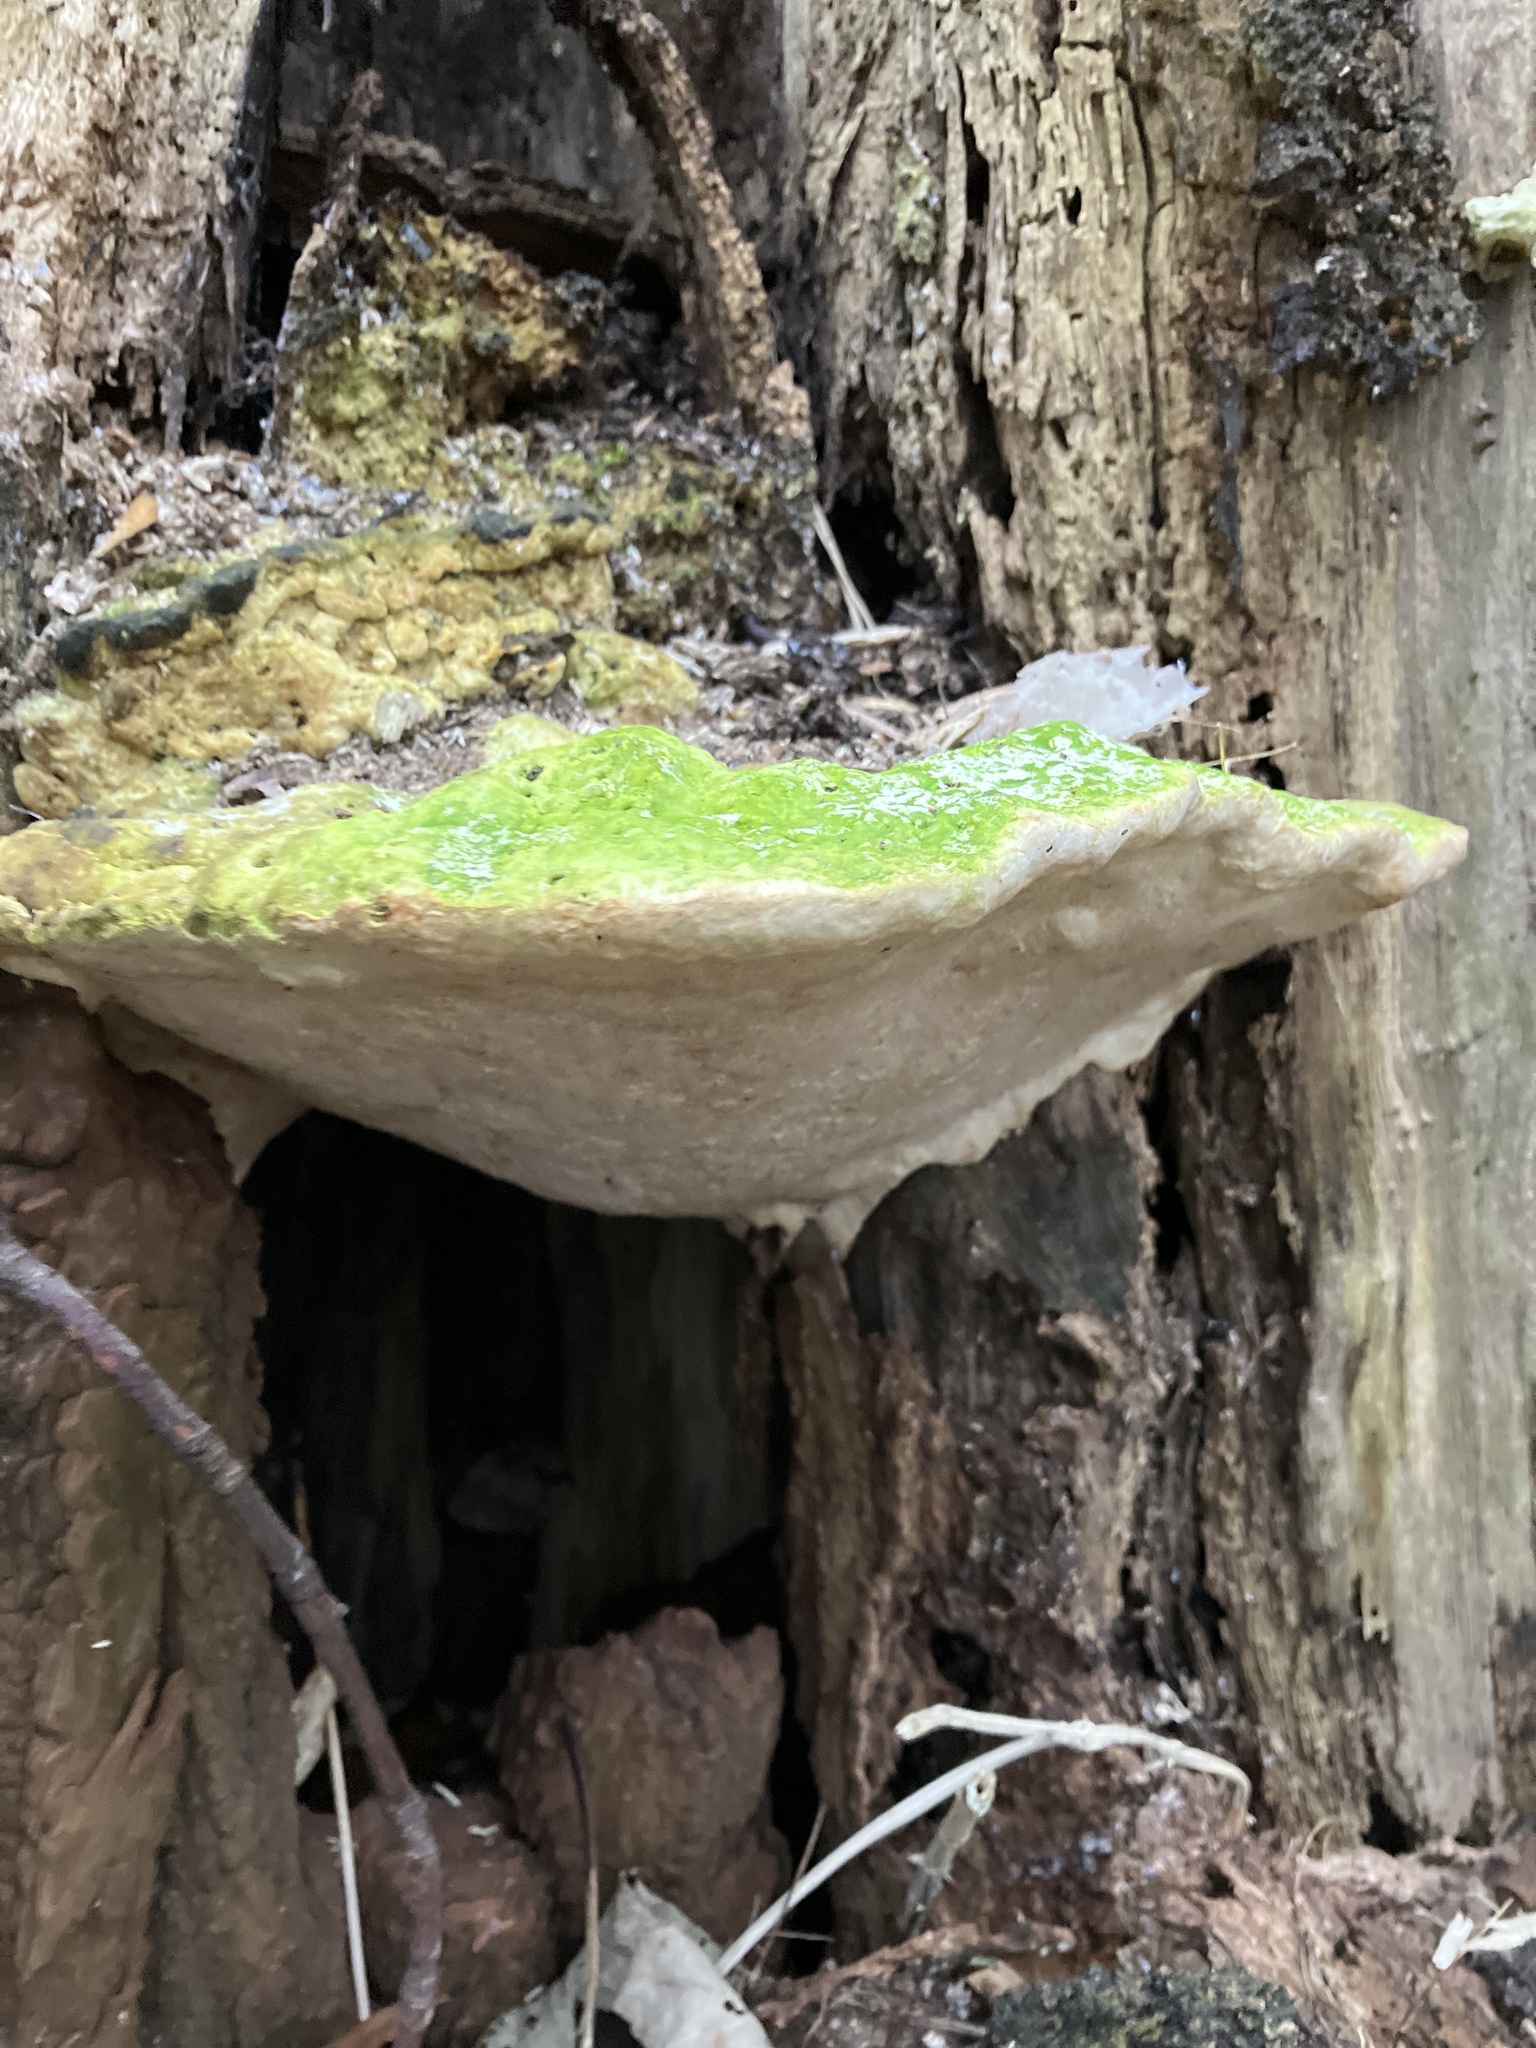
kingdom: Fungi
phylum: Basidiomycota
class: Agaricomycetes
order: Polyporales
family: Polyporaceae
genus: Trametes
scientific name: Trametes gibbosa
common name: Lumpy bracket
